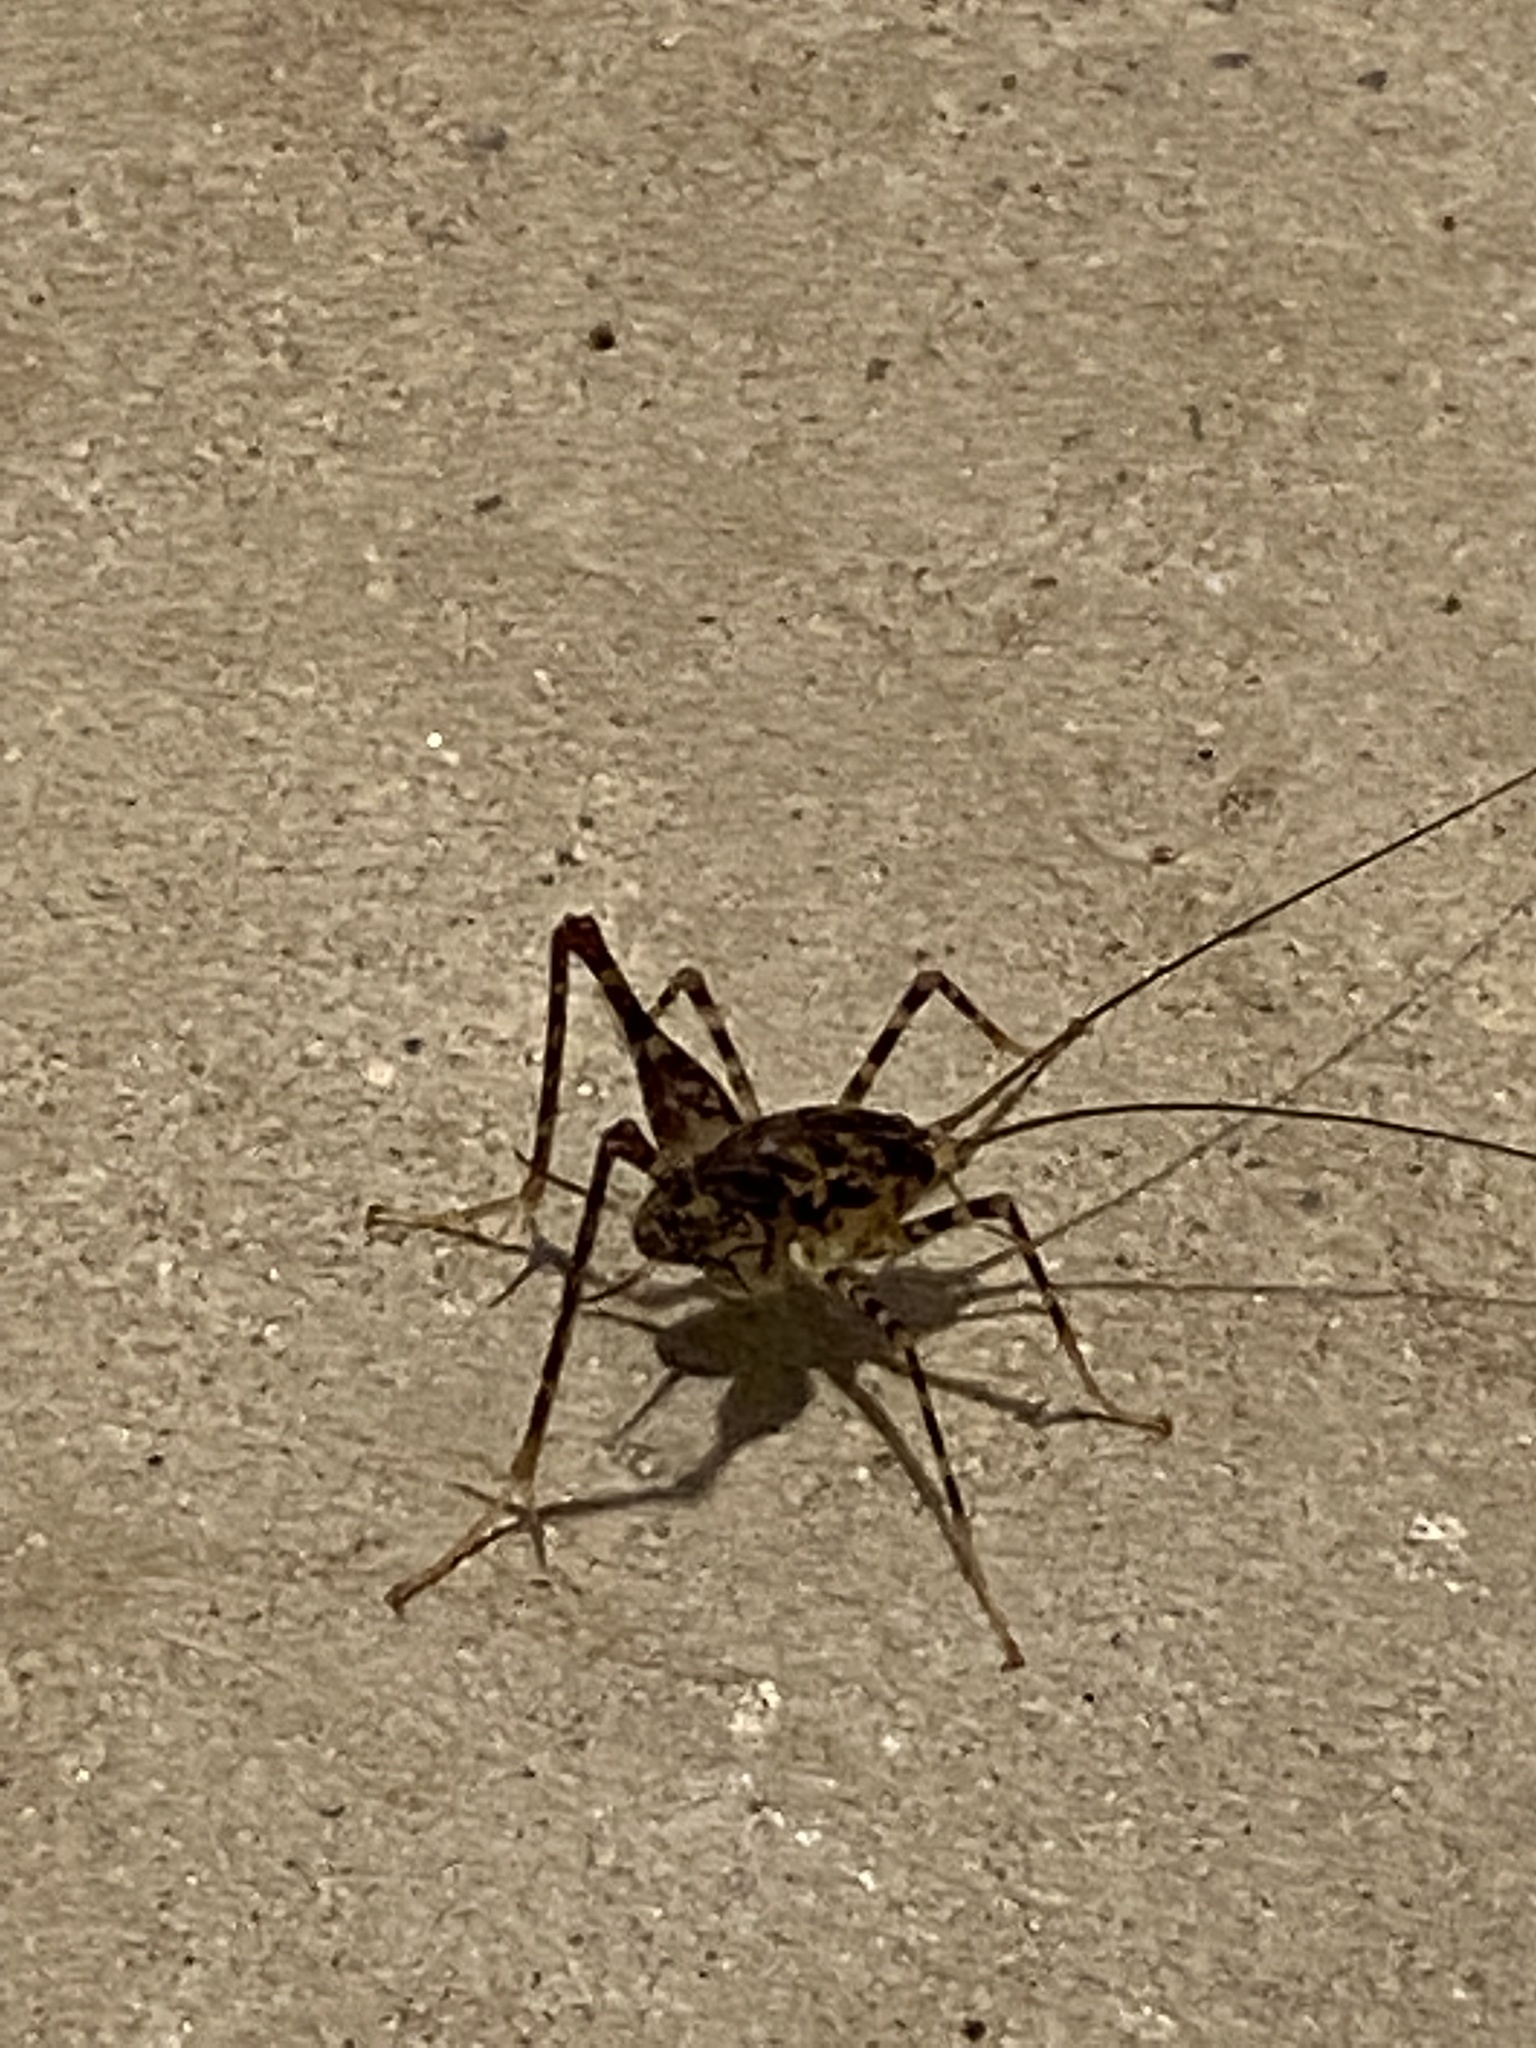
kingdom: Animalia
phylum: Arthropoda
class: Insecta
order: Orthoptera
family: Rhaphidophoridae
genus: Diestrammena
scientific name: Diestrammena japanica
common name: Japanese camel cricket
